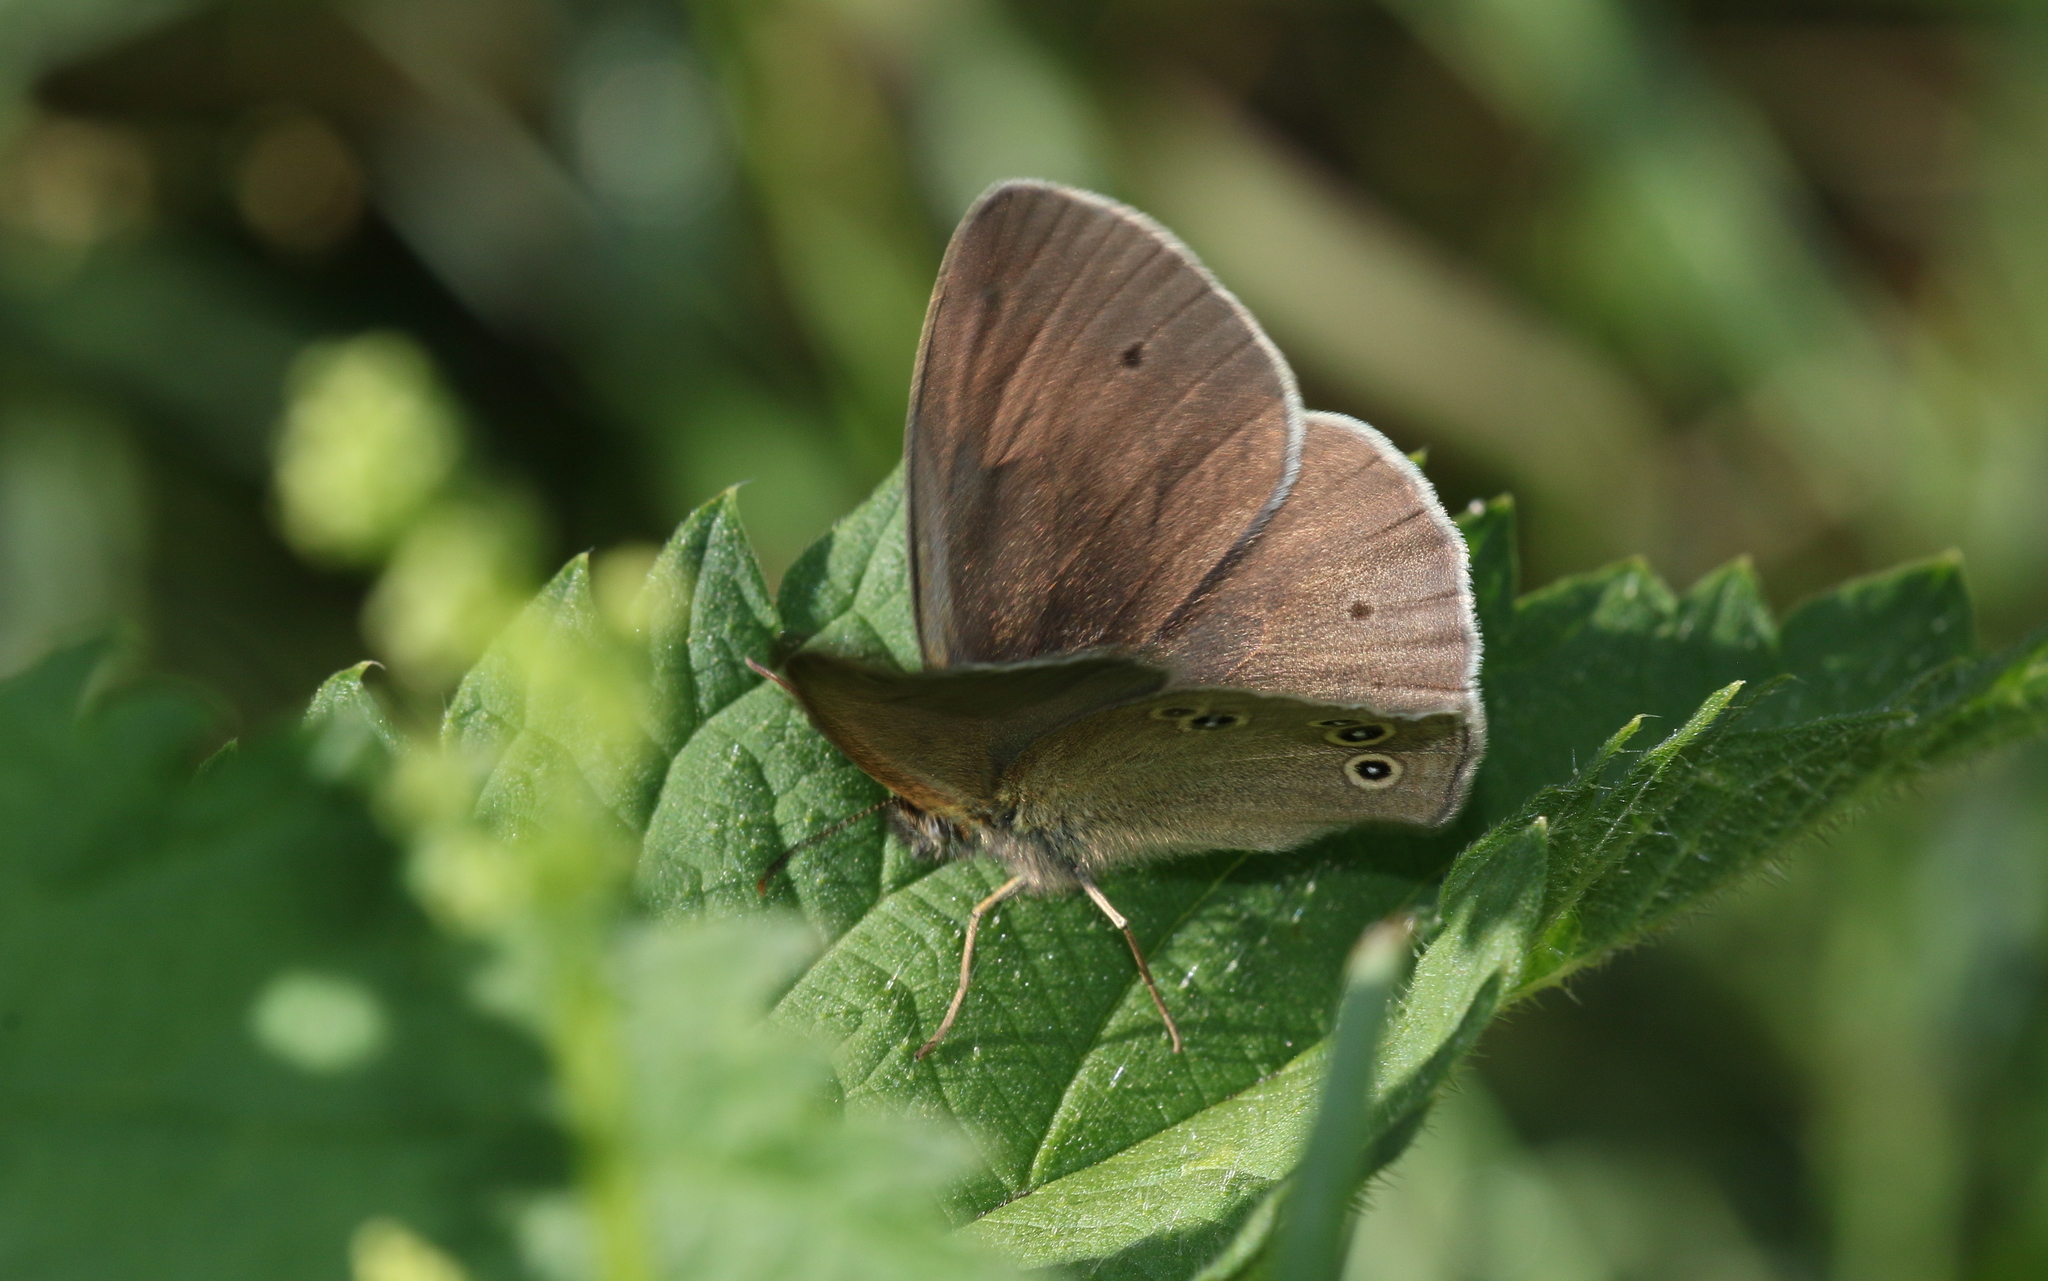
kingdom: Animalia
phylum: Arthropoda
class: Insecta
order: Lepidoptera
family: Nymphalidae
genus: Aphantopus
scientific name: Aphantopus hyperantus
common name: Ringlet
